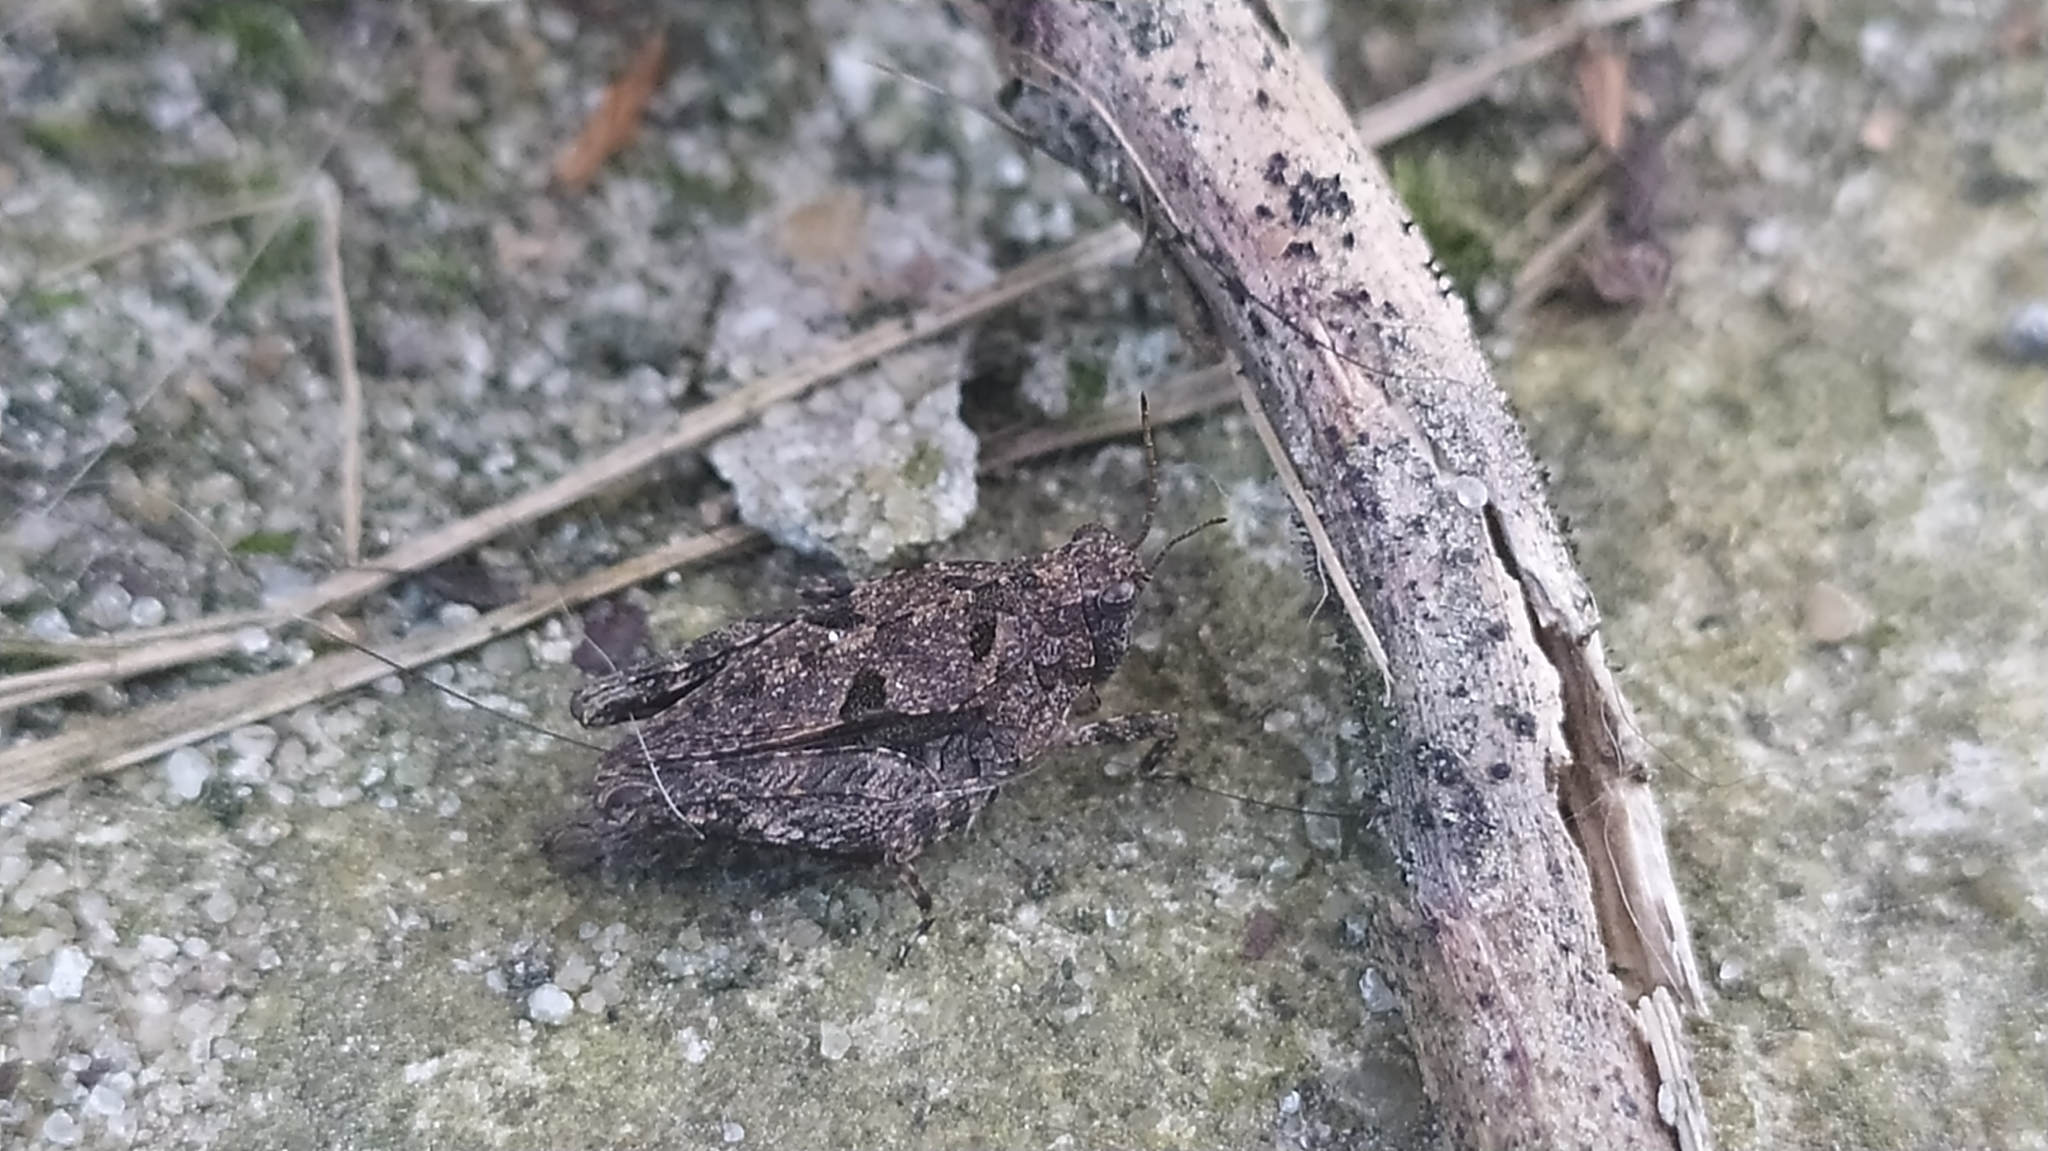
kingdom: Animalia
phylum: Arthropoda
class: Insecta
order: Orthoptera
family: Tetrigidae
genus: Tetrix
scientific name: Tetrix tenuicornis
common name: Long-horned groundhopper
